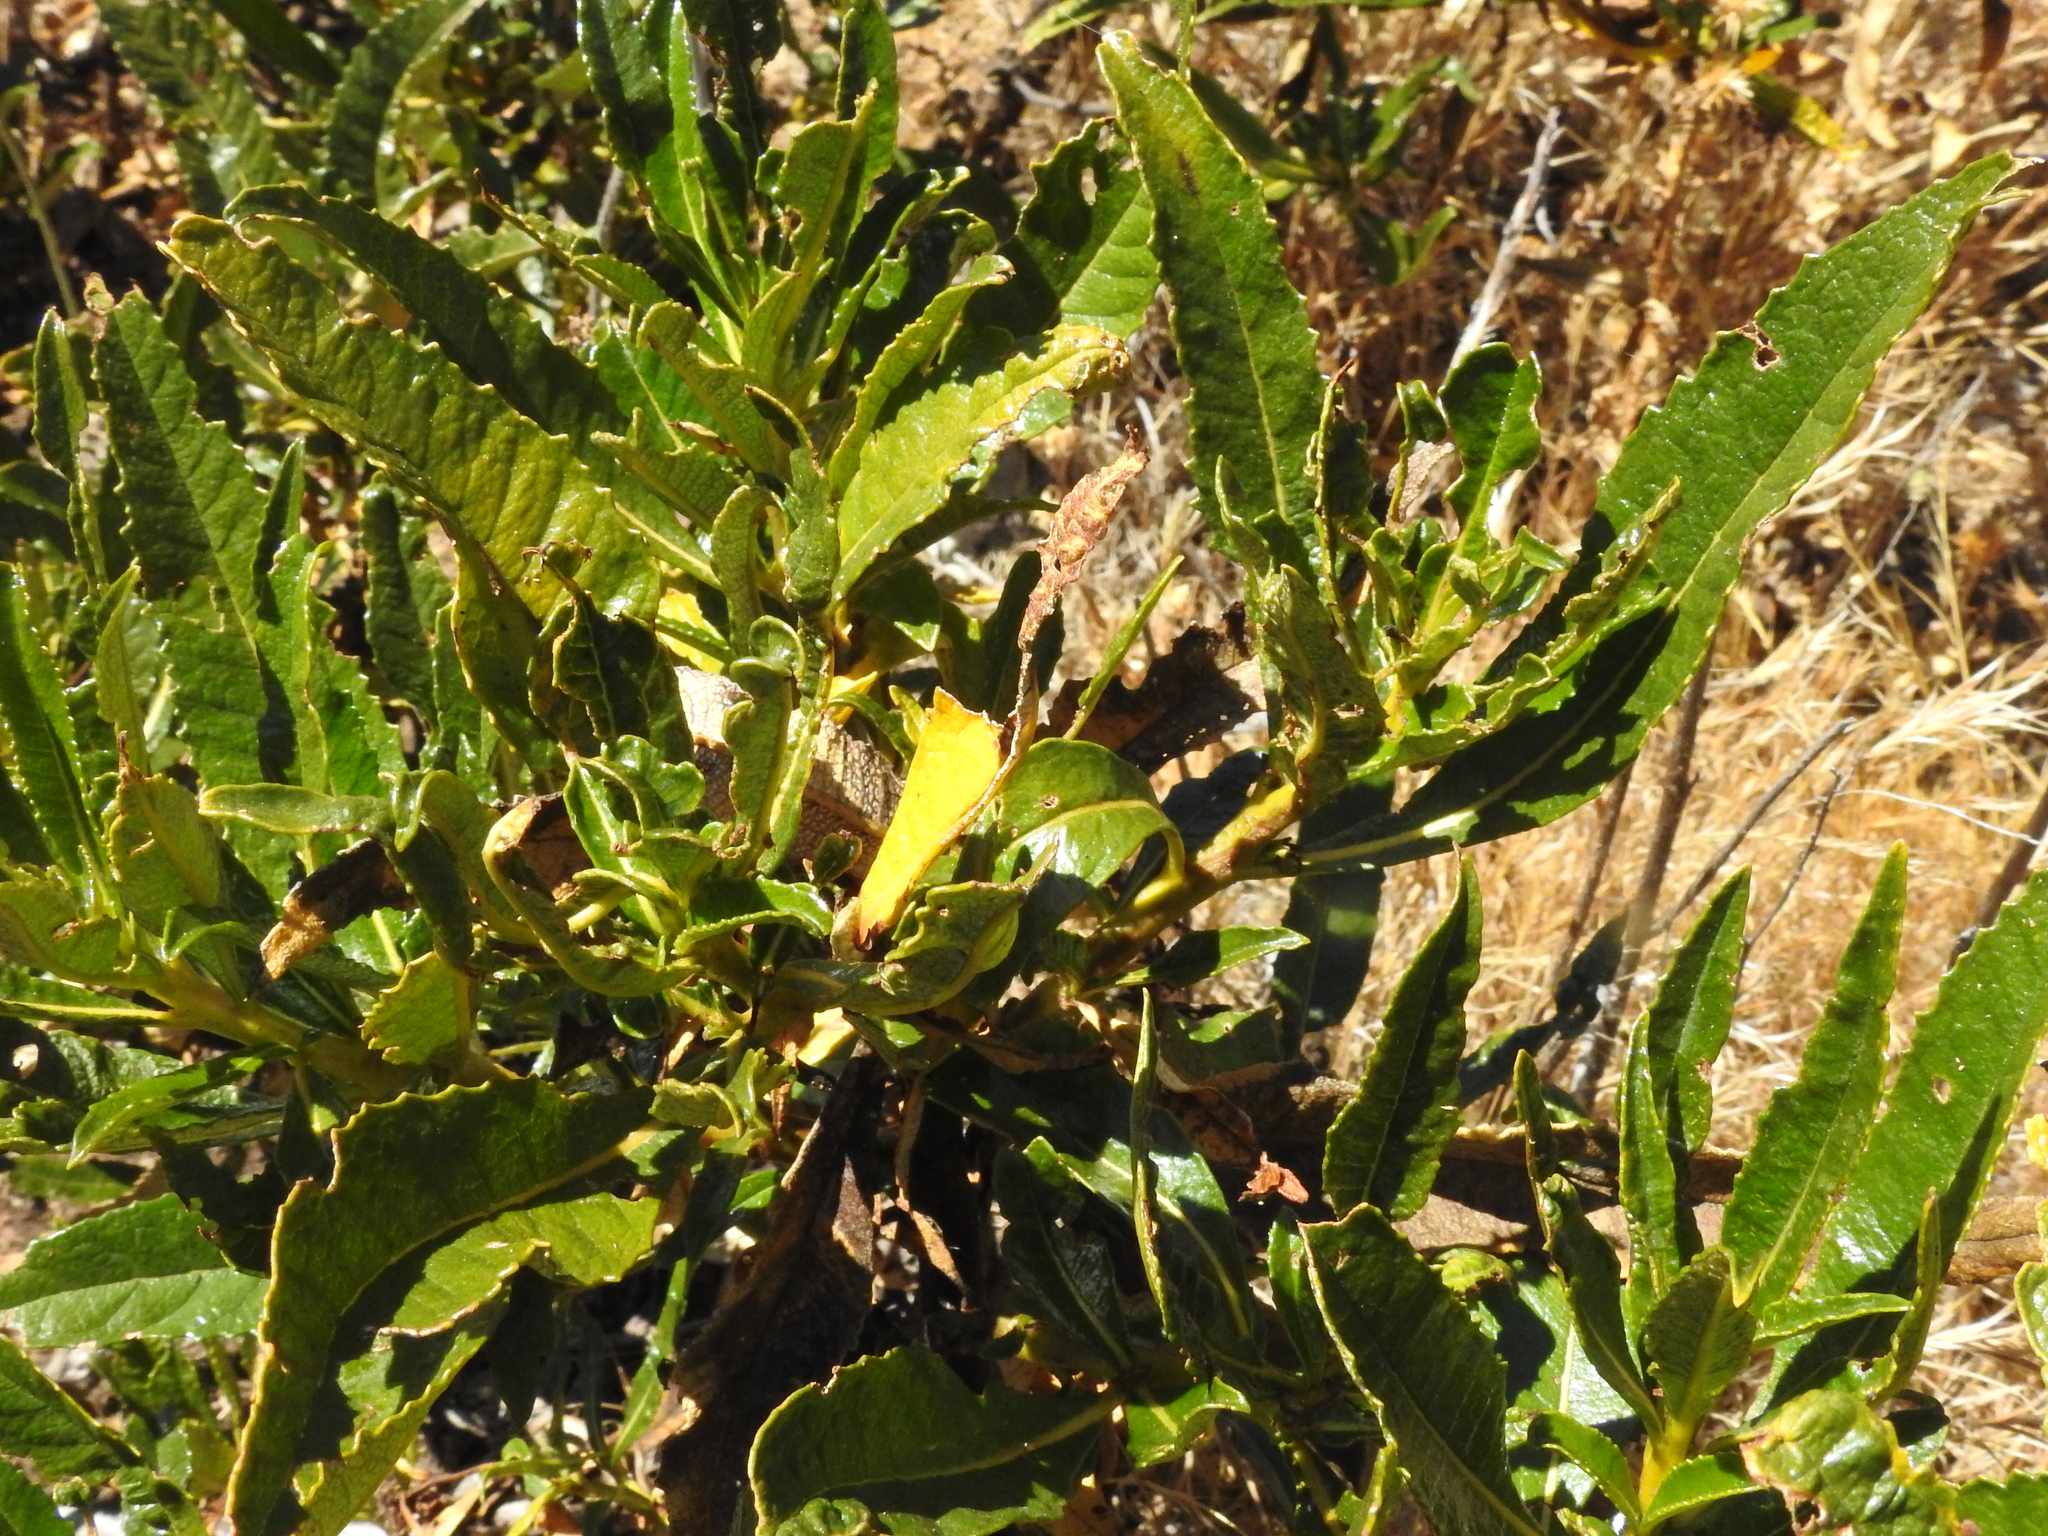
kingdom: Plantae
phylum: Tracheophyta
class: Magnoliopsida
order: Boraginales
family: Namaceae
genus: Eriodictyon
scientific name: Eriodictyon californicum
